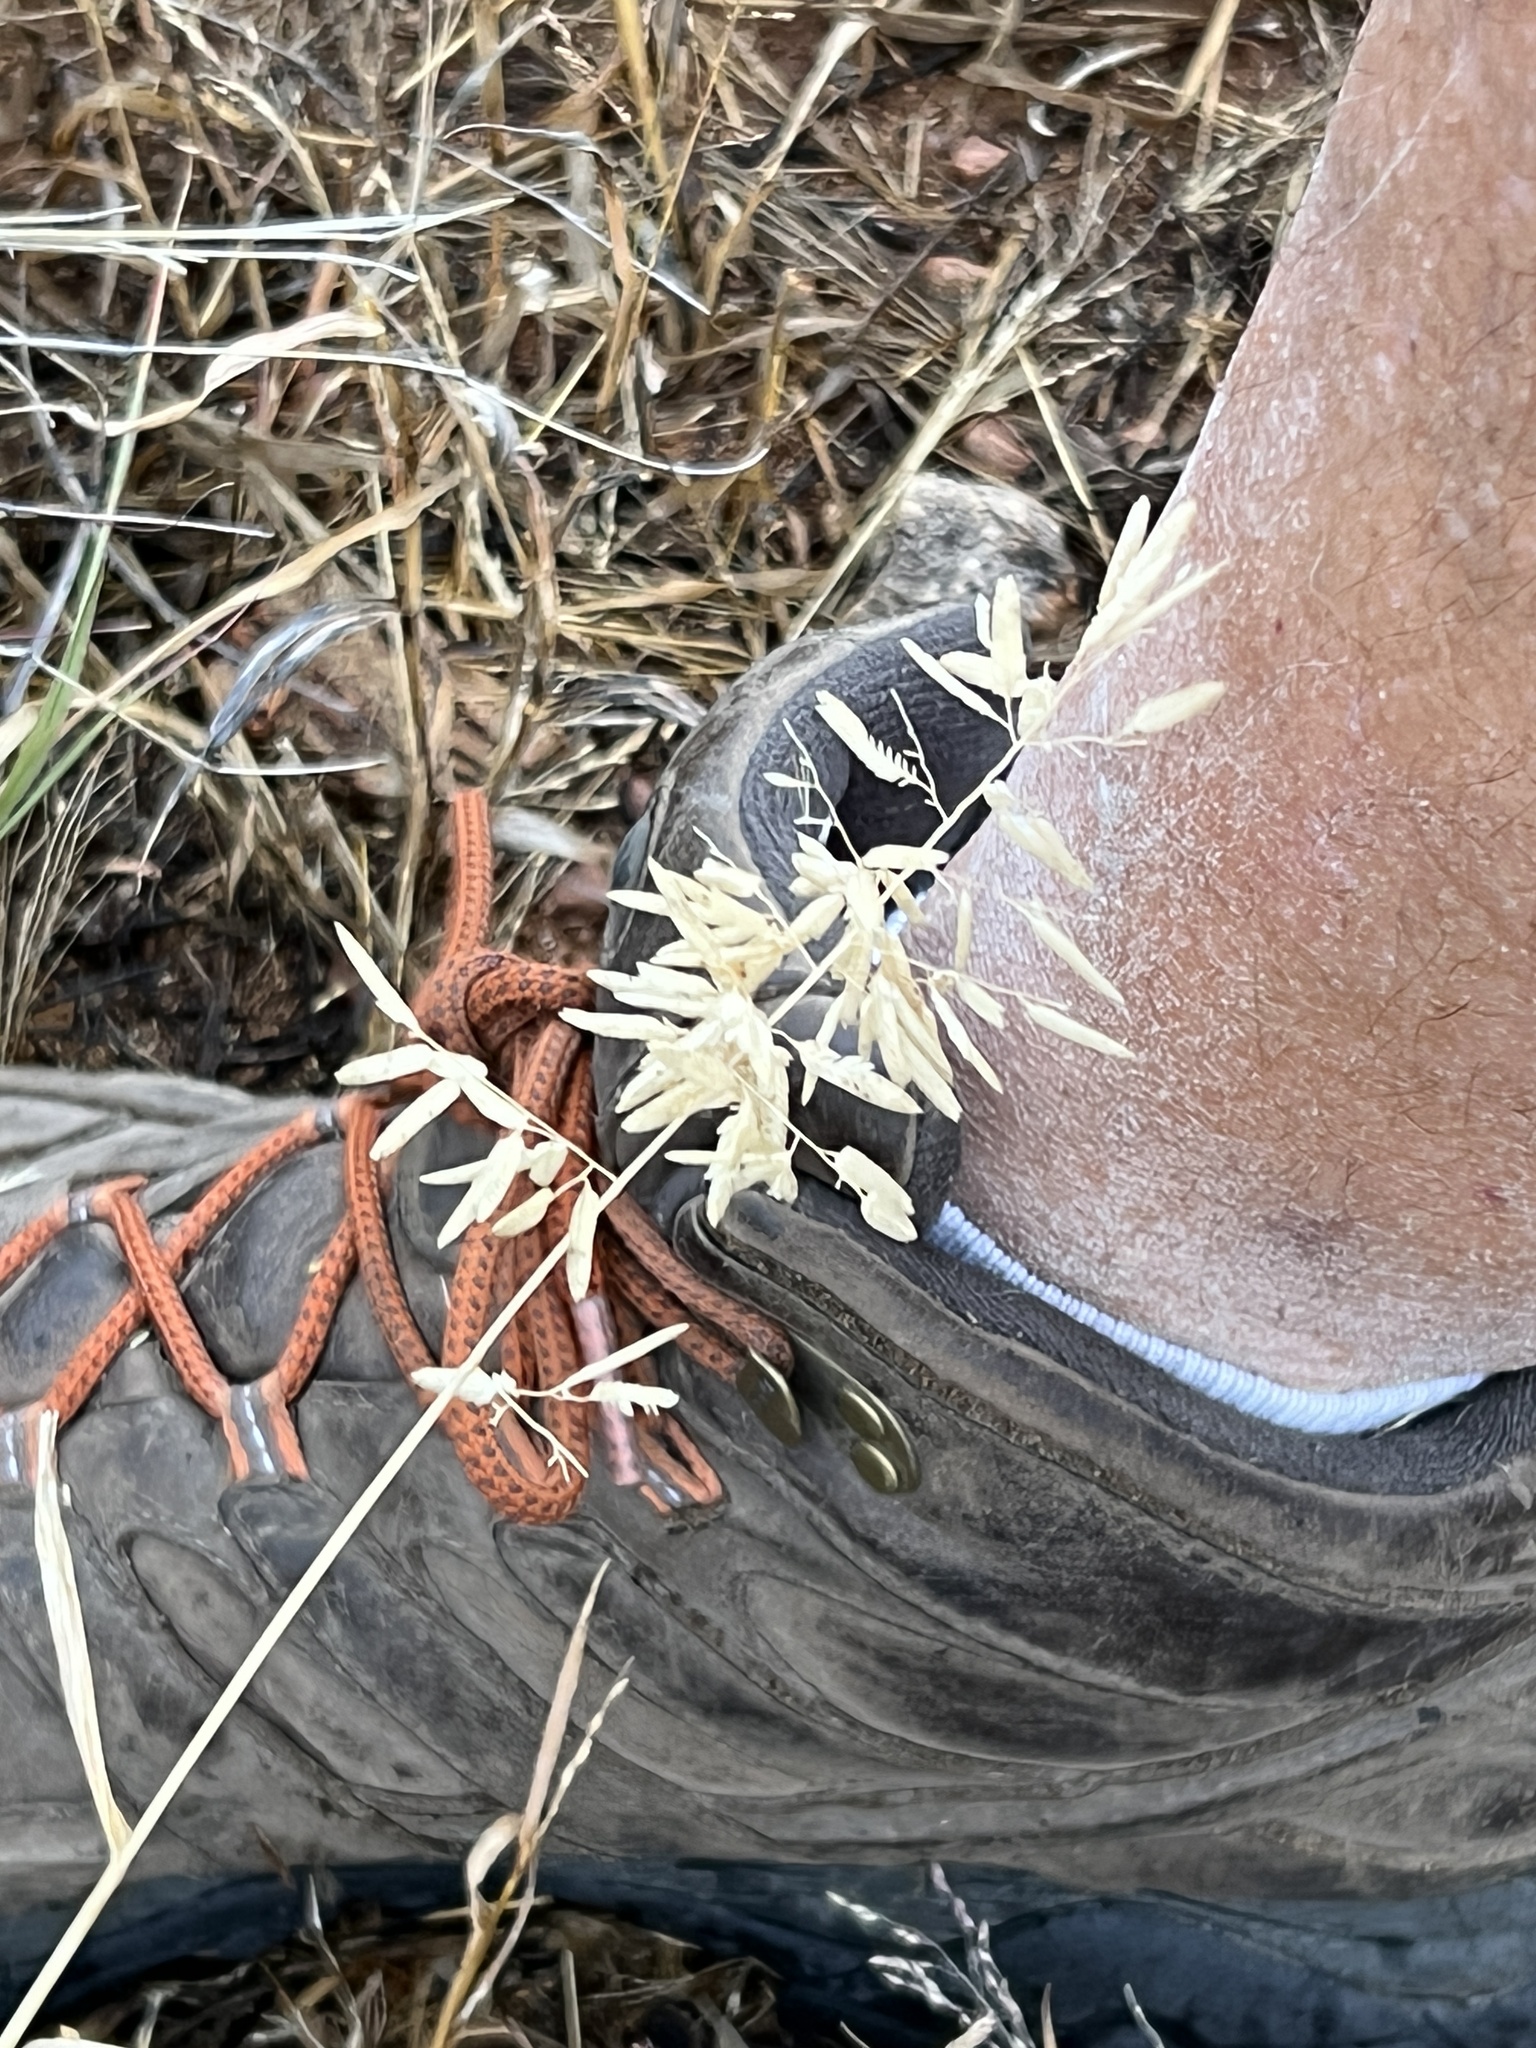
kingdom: Plantae
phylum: Tracheophyta
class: Liliopsida
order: Poales
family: Poaceae
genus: Eragrostis
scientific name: Eragrostis cilianensis
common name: Stinkgrass
